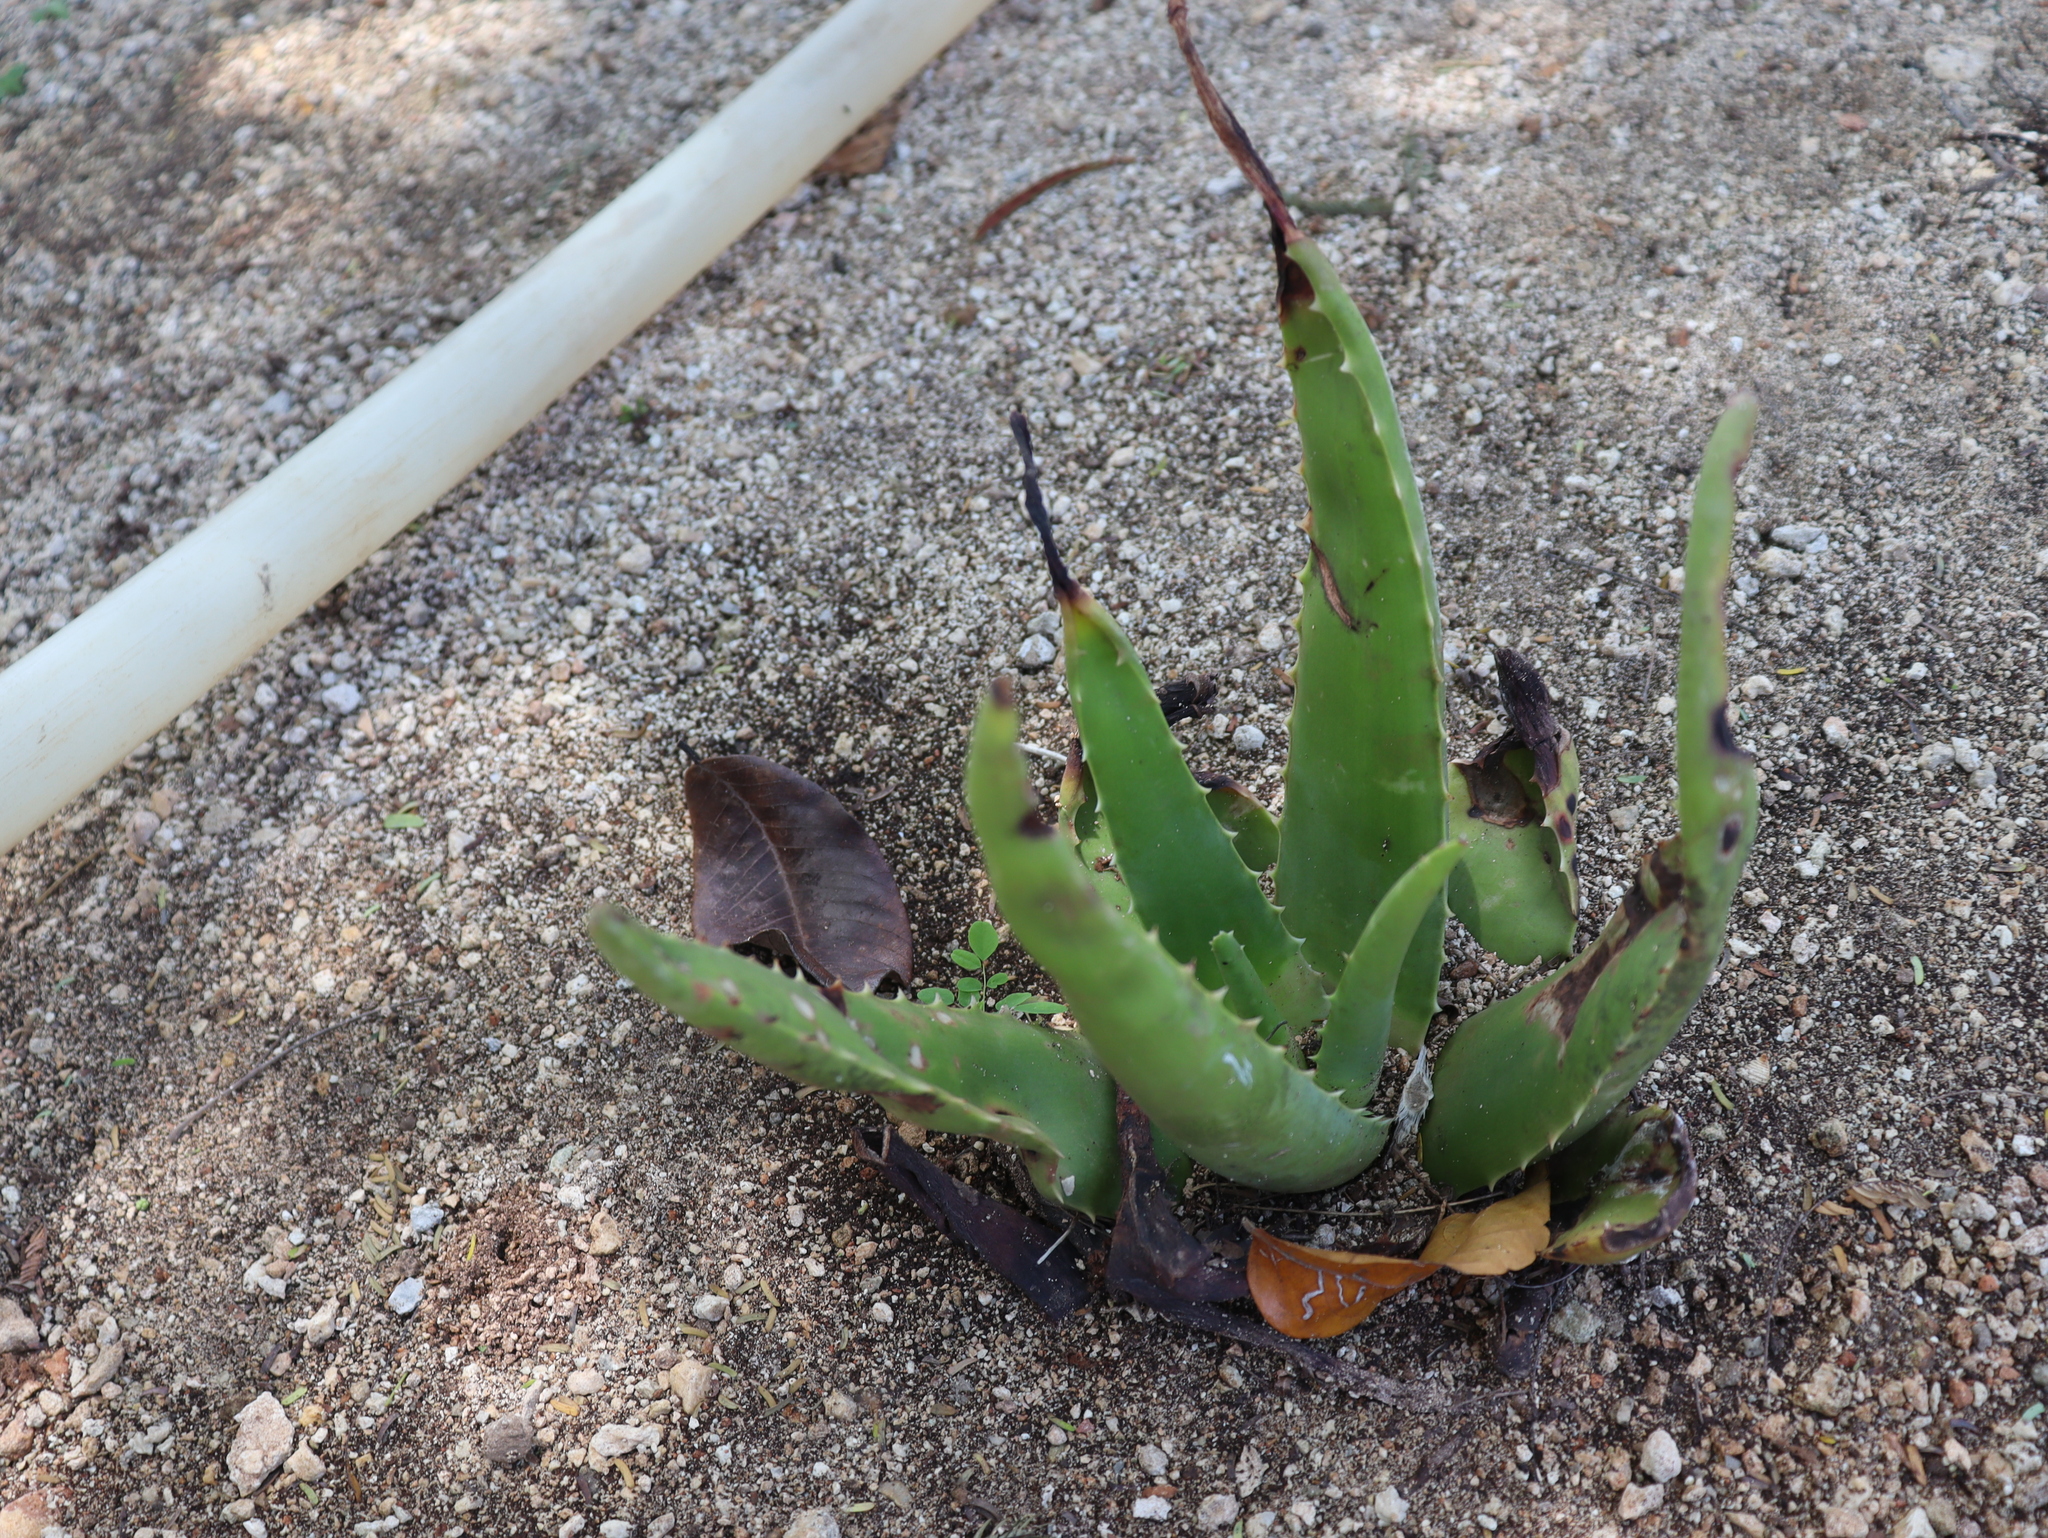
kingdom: Plantae
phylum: Tracheophyta
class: Liliopsida
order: Asparagales
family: Asphodelaceae
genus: Aloe
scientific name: Aloe vera
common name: Barbados aloe
